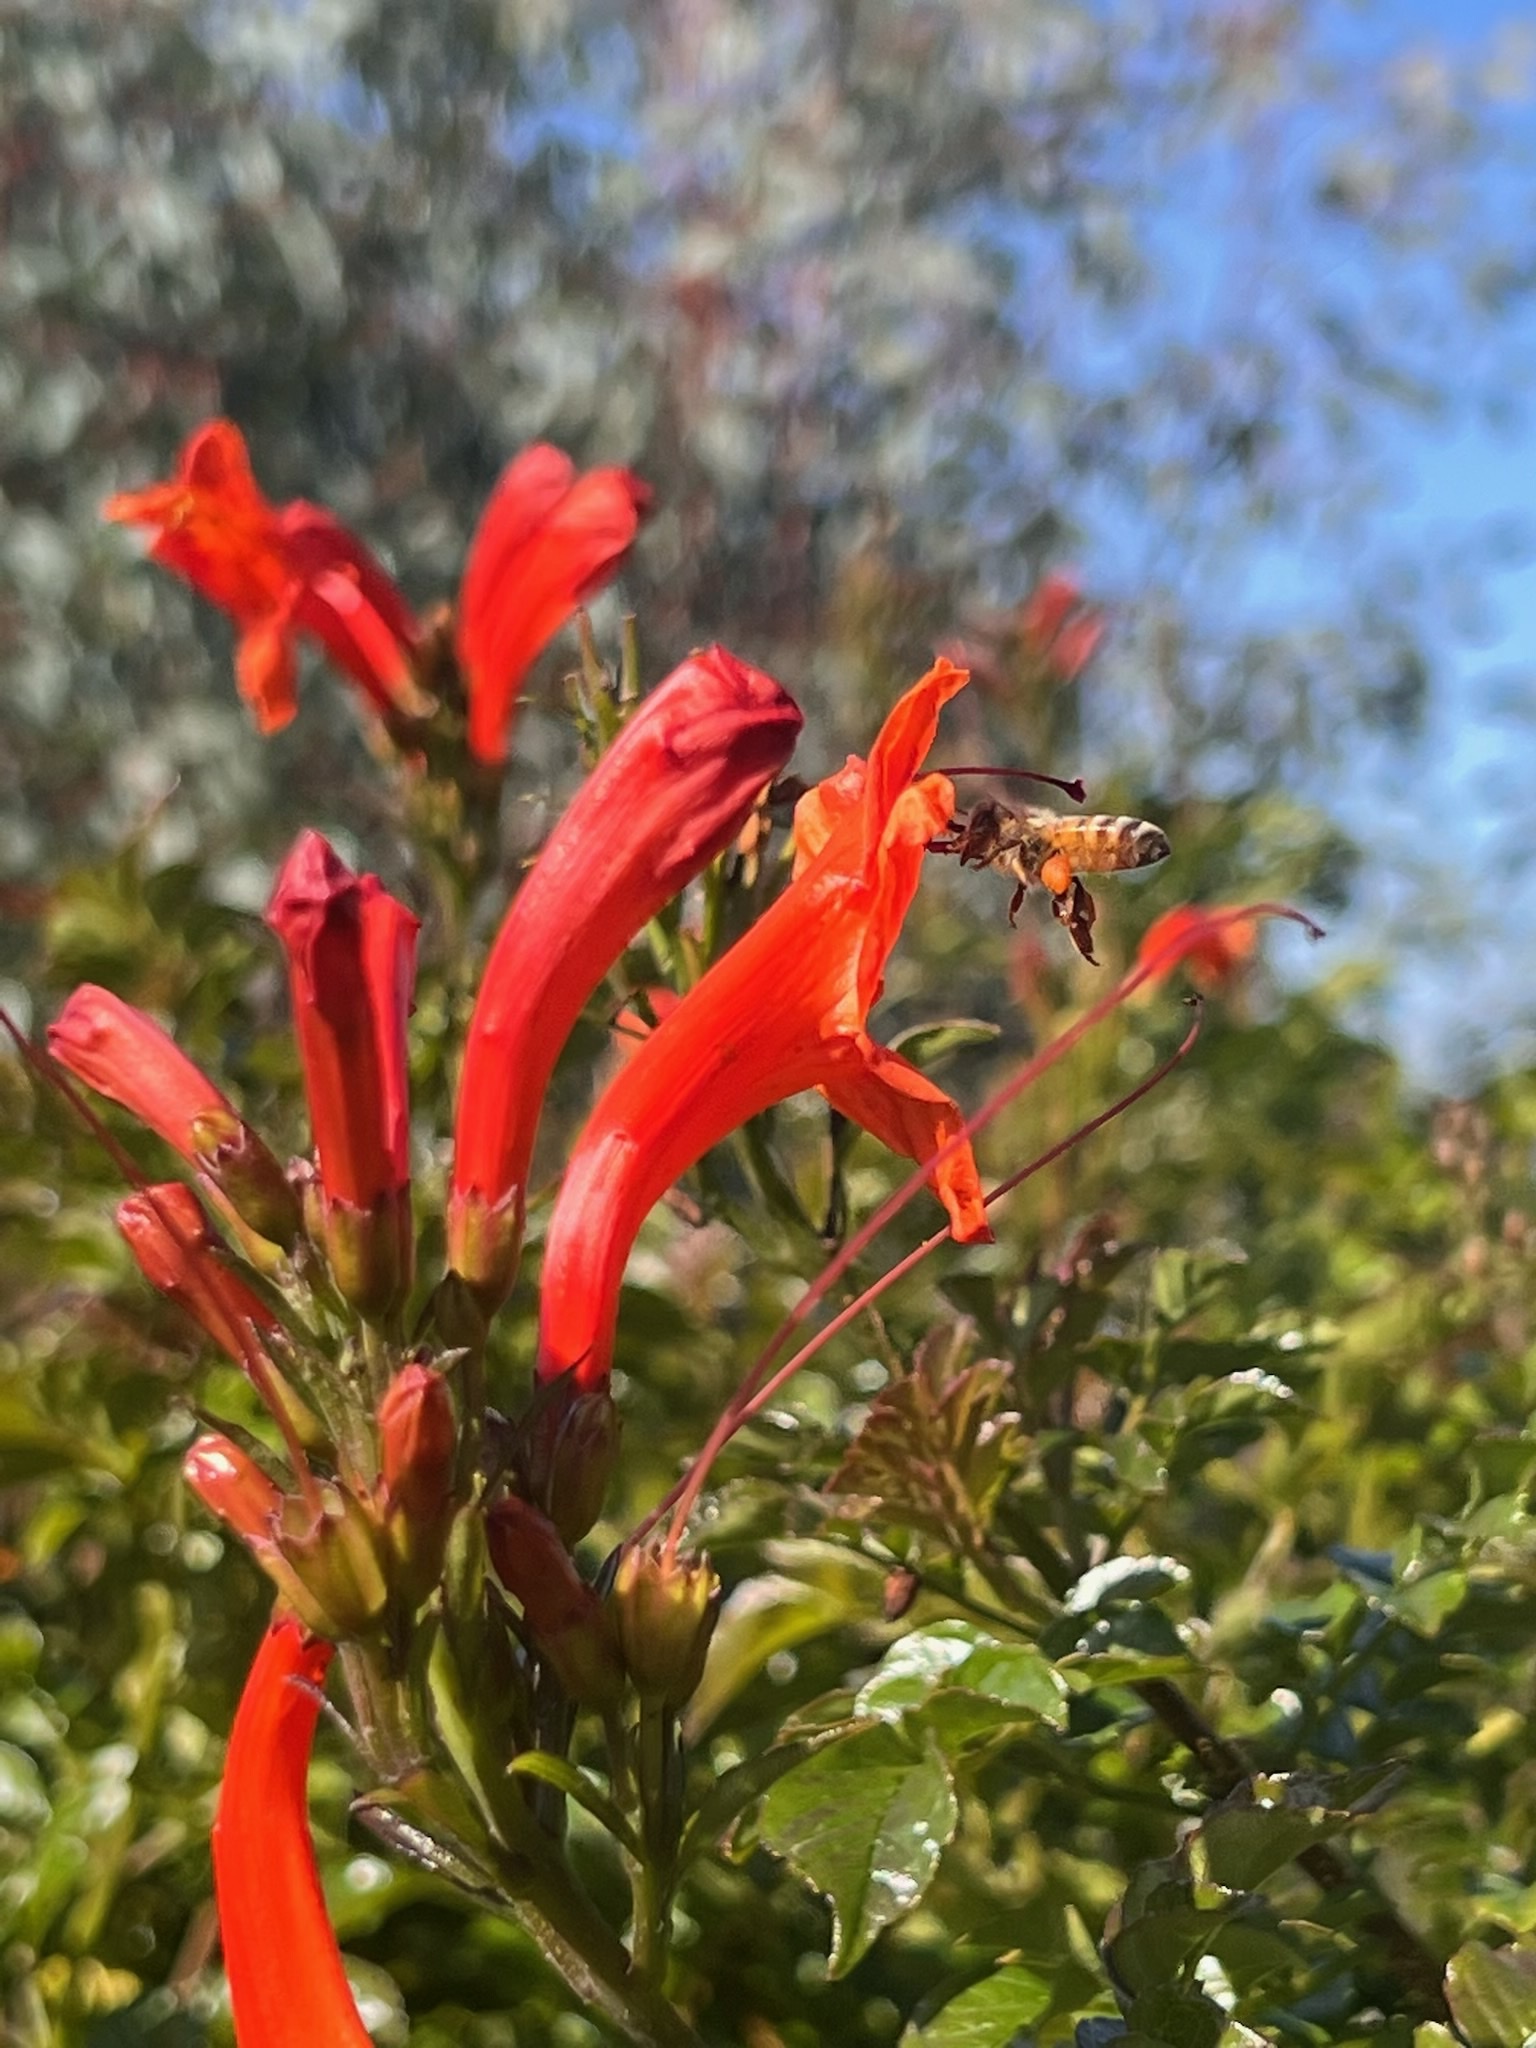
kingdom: Animalia
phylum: Arthropoda
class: Insecta
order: Hymenoptera
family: Apidae
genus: Apis
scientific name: Apis mellifera
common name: Honey bee
